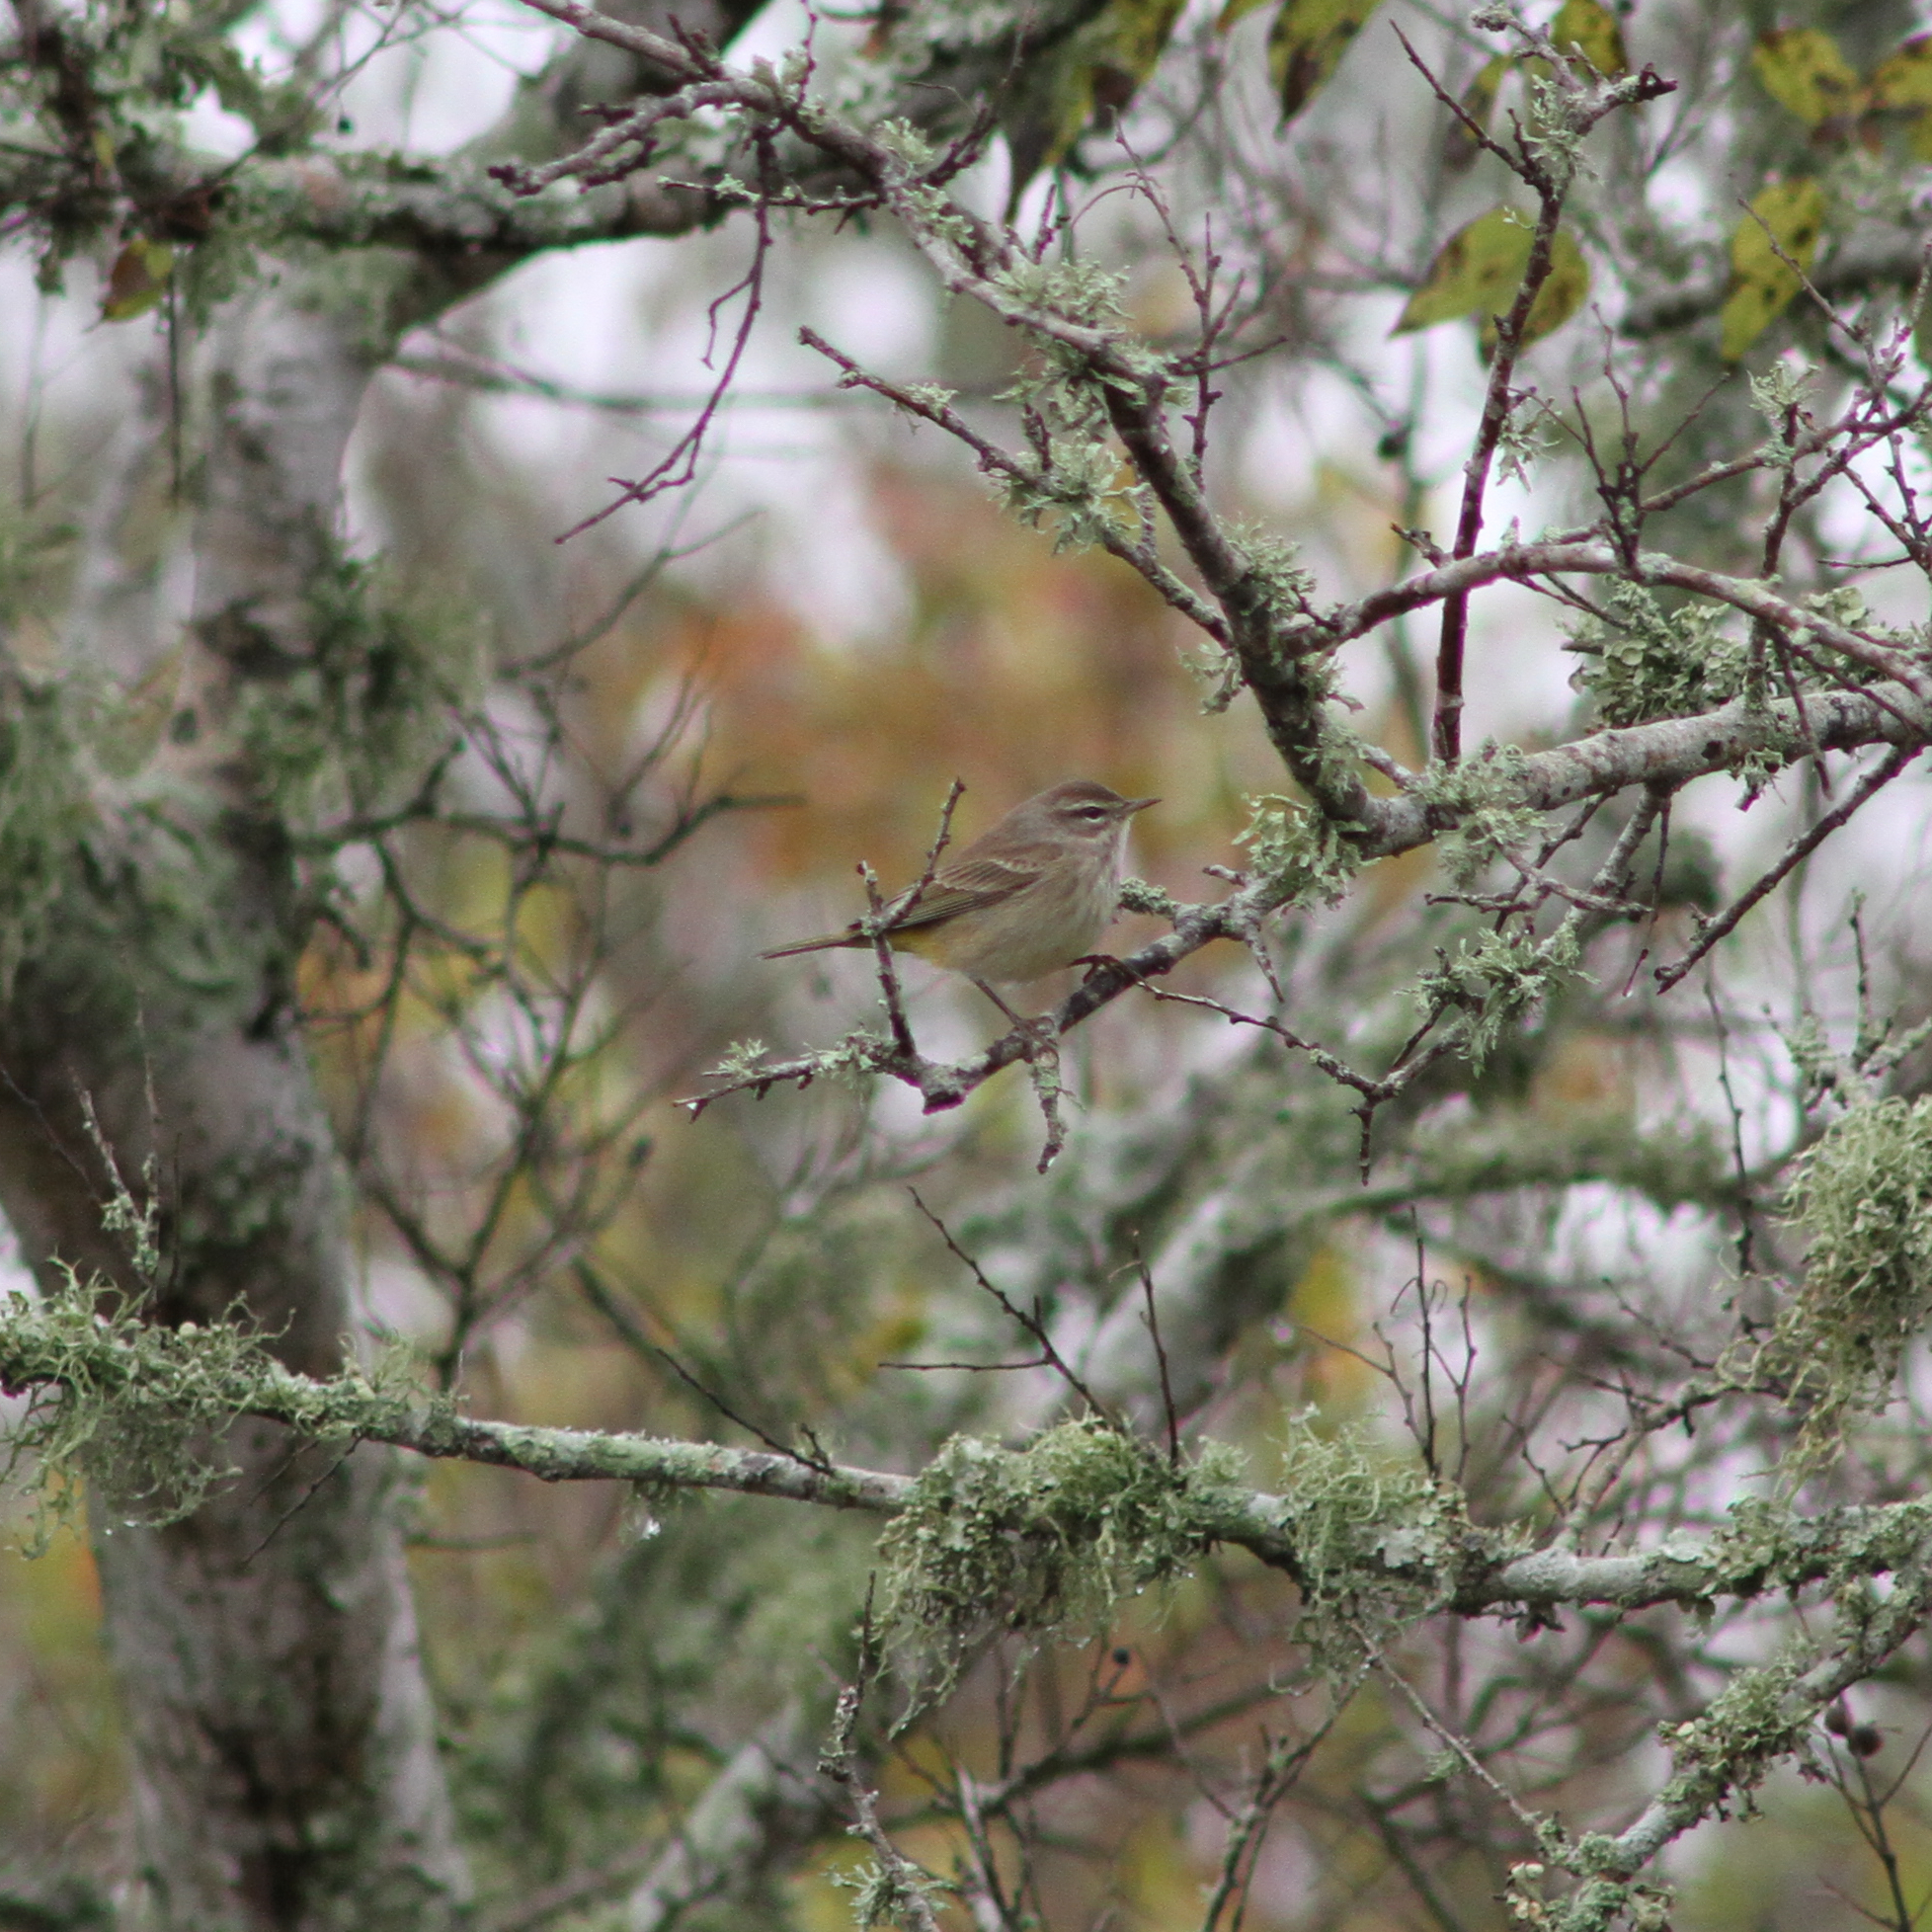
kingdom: Animalia
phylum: Chordata
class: Aves
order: Passeriformes
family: Parulidae
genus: Setophaga
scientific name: Setophaga palmarum
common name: Palm warbler
